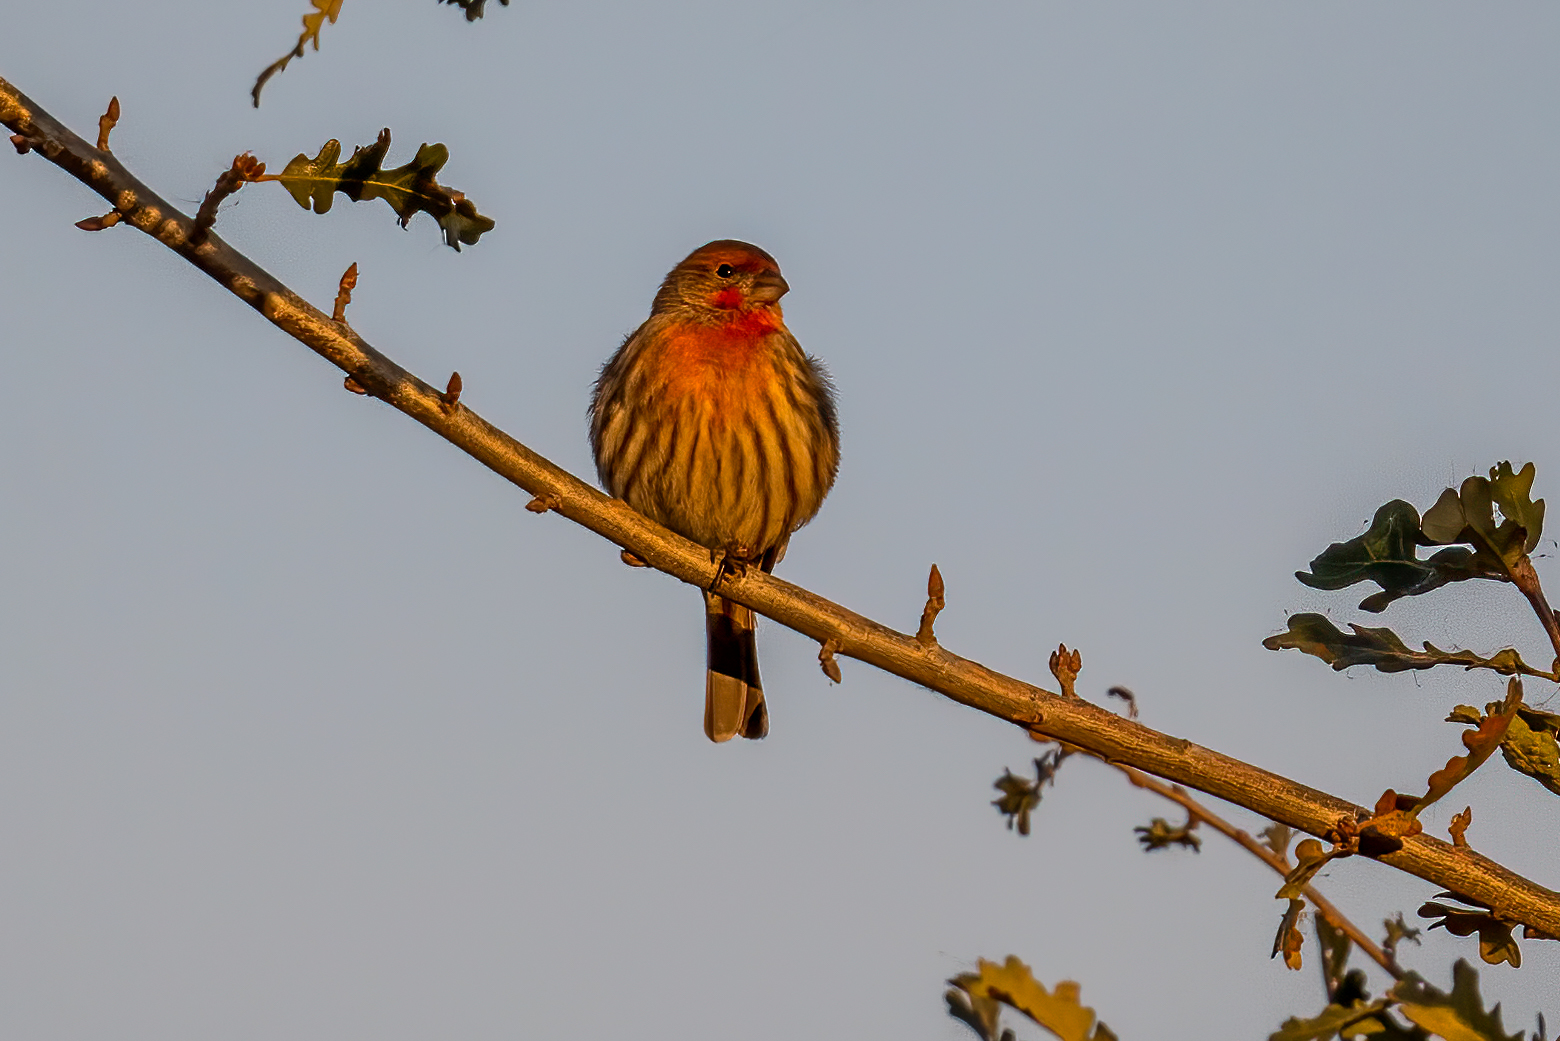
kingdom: Animalia
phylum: Chordata
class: Aves
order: Passeriformes
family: Fringillidae
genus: Haemorhous
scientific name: Haemorhous mexicanus
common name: House finch
